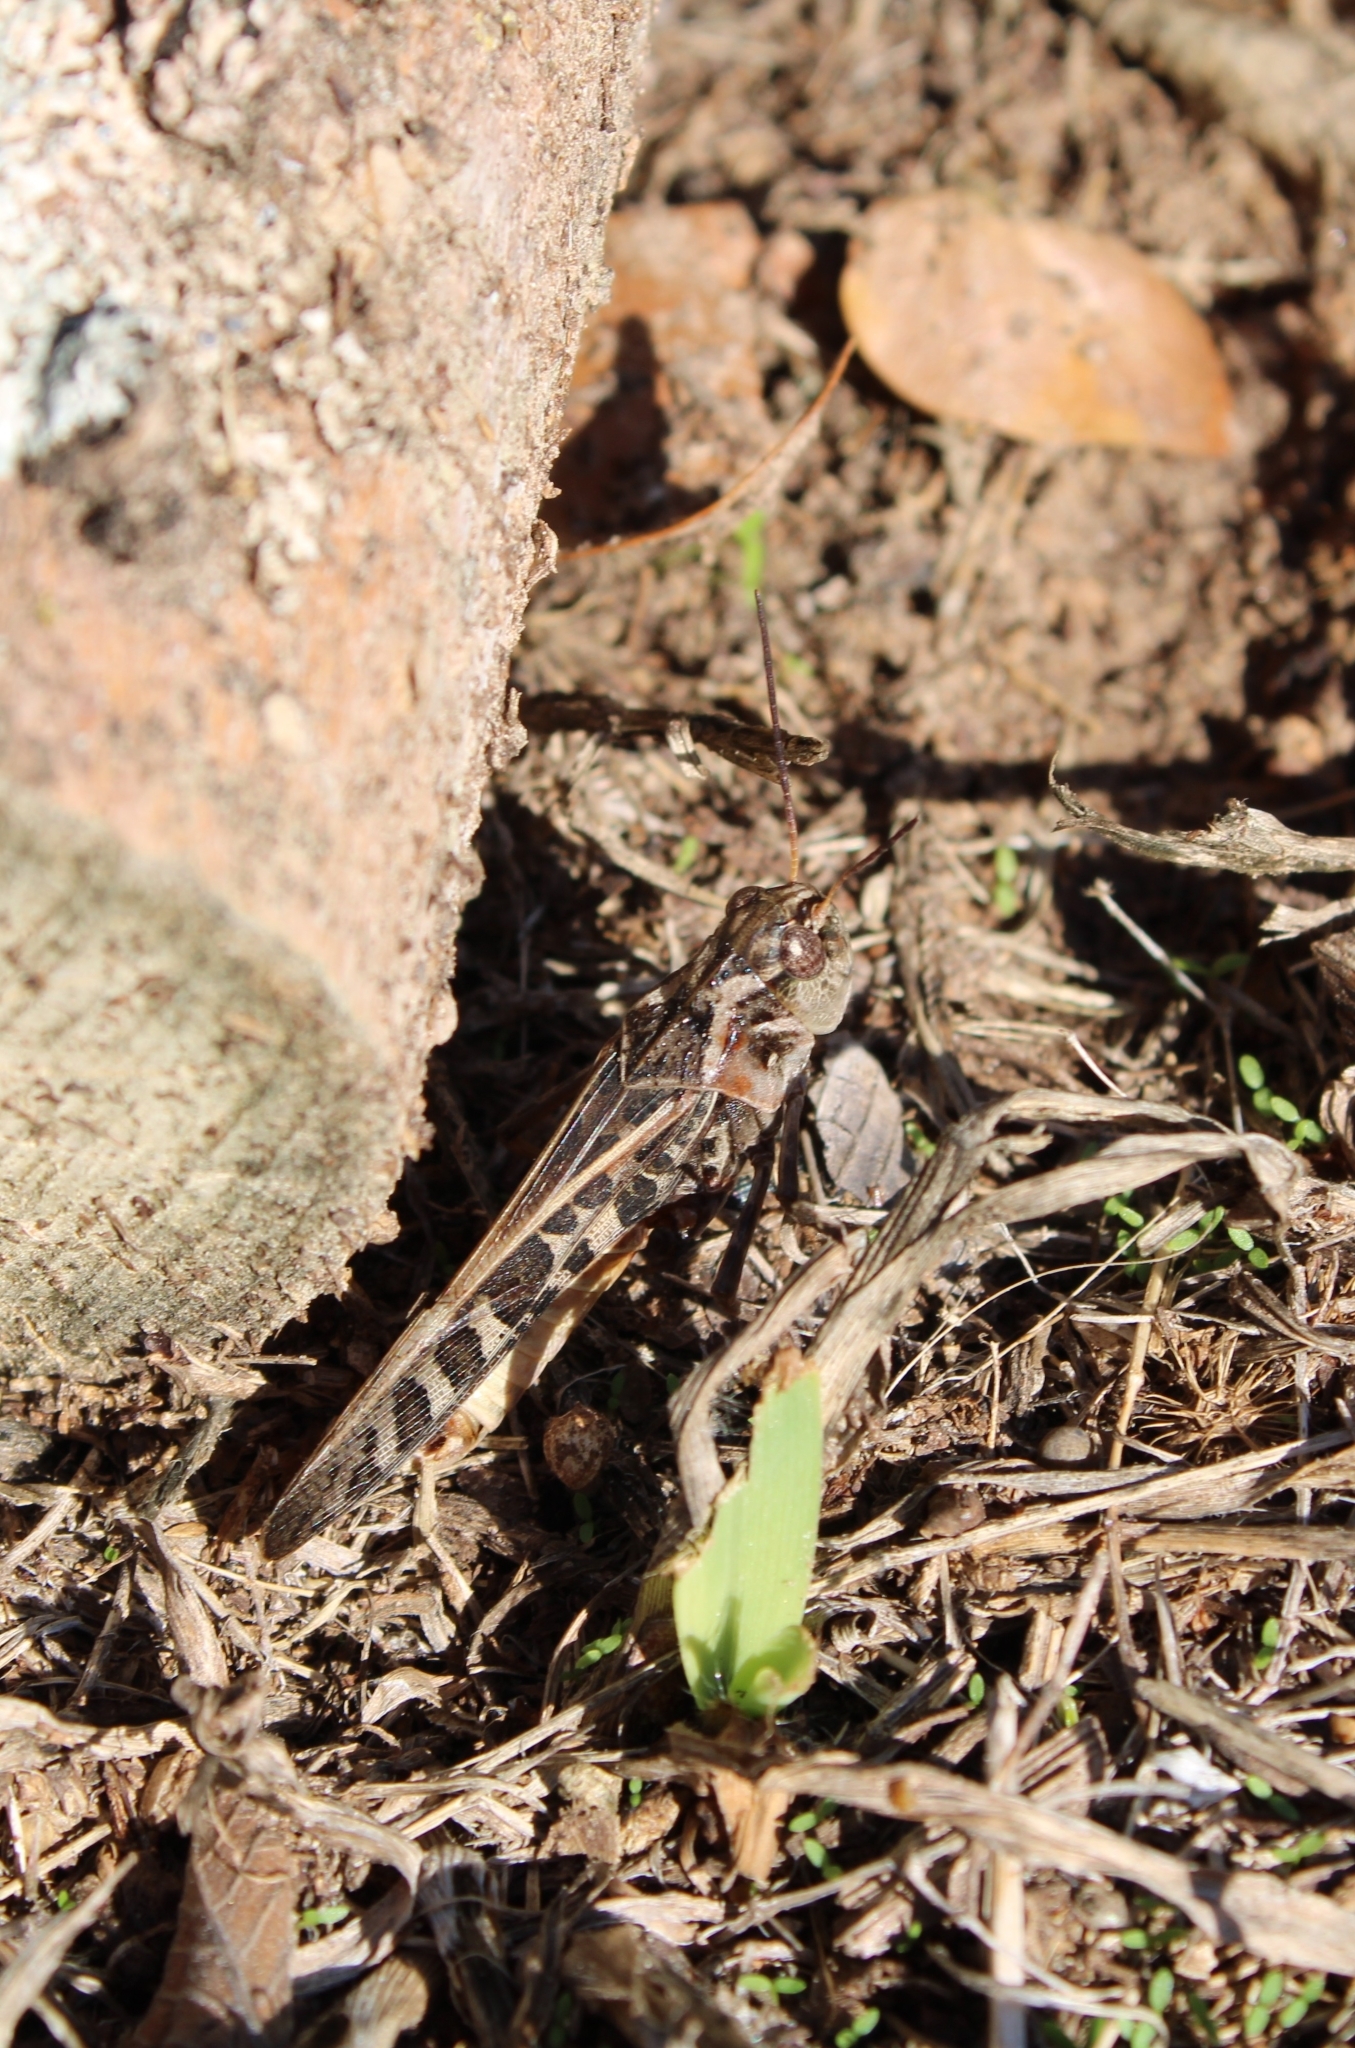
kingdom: Animalia
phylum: Arthropoda
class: Insecta
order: Orthoptera
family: Acrididae
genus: Hippiscus
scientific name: Hippiscus ocelote
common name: Wrinkled grasshopper
